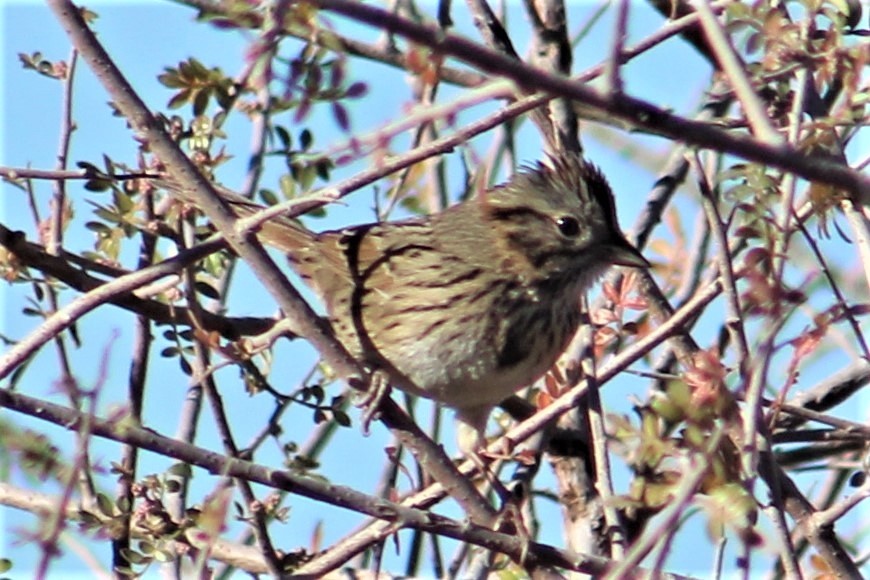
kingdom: Animalia
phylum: Chordata
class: Aves
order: Passeriformes
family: Passerellidae
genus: Melospiza
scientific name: Melospiza lincolnii
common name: Lincoln's sparrow
